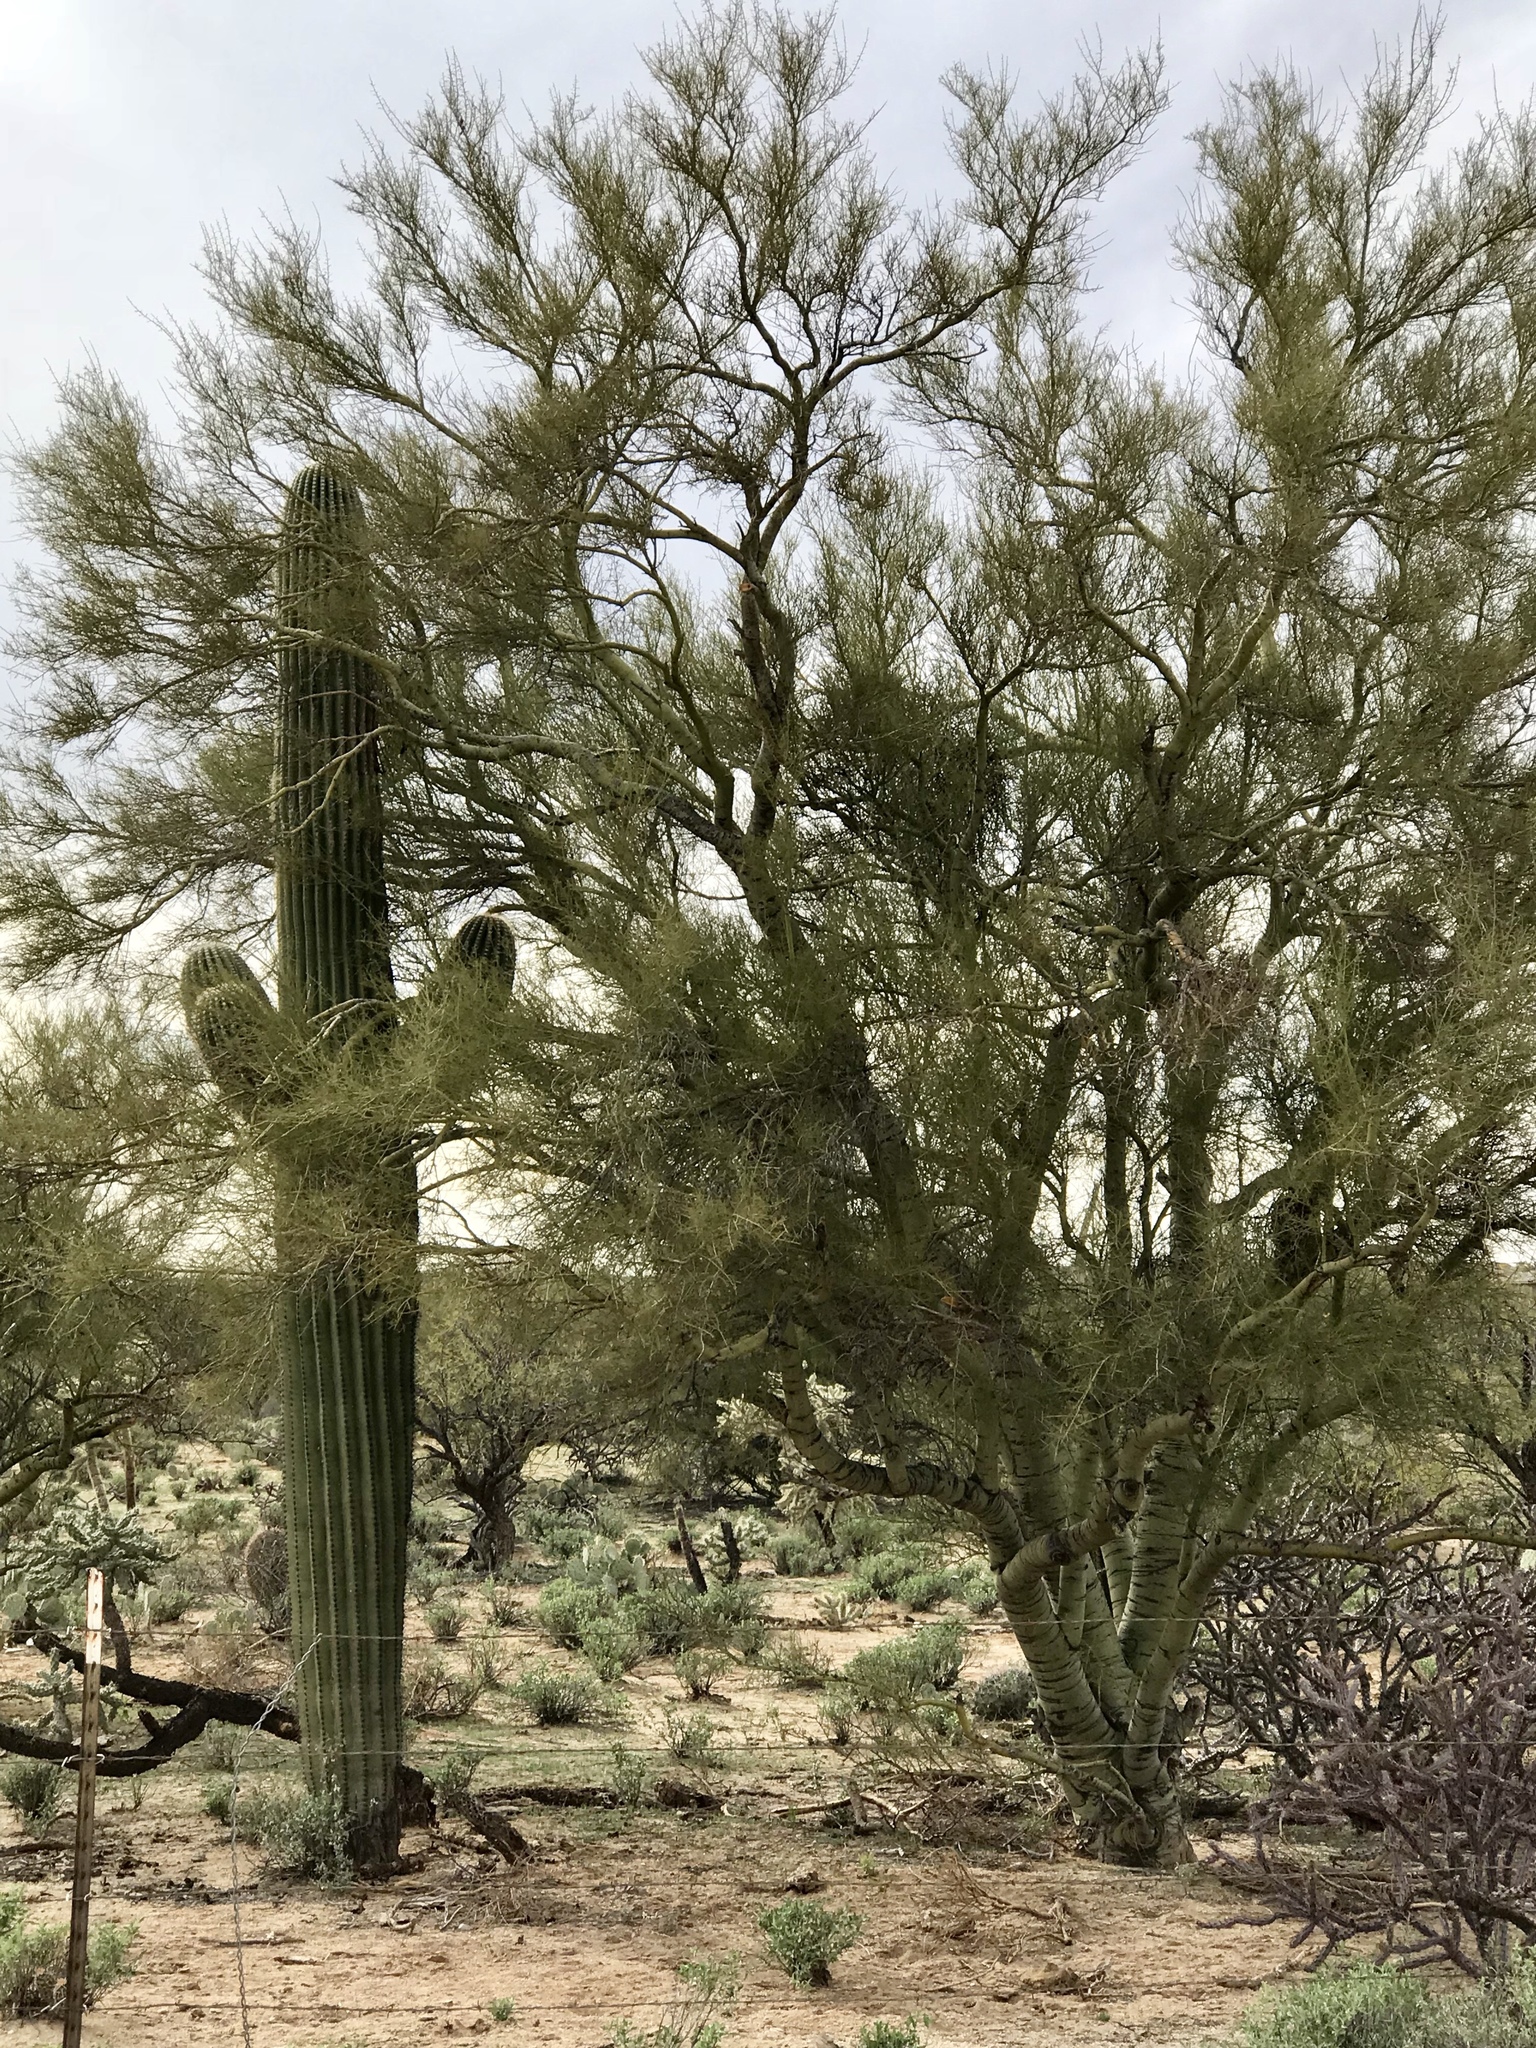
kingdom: Plantae
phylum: Tracheophyta
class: Magnoliopsida
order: Fabales
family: Fabaceae
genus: Parkinsonia
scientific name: Parkinsonia microphylla
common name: Yellow paloverde
